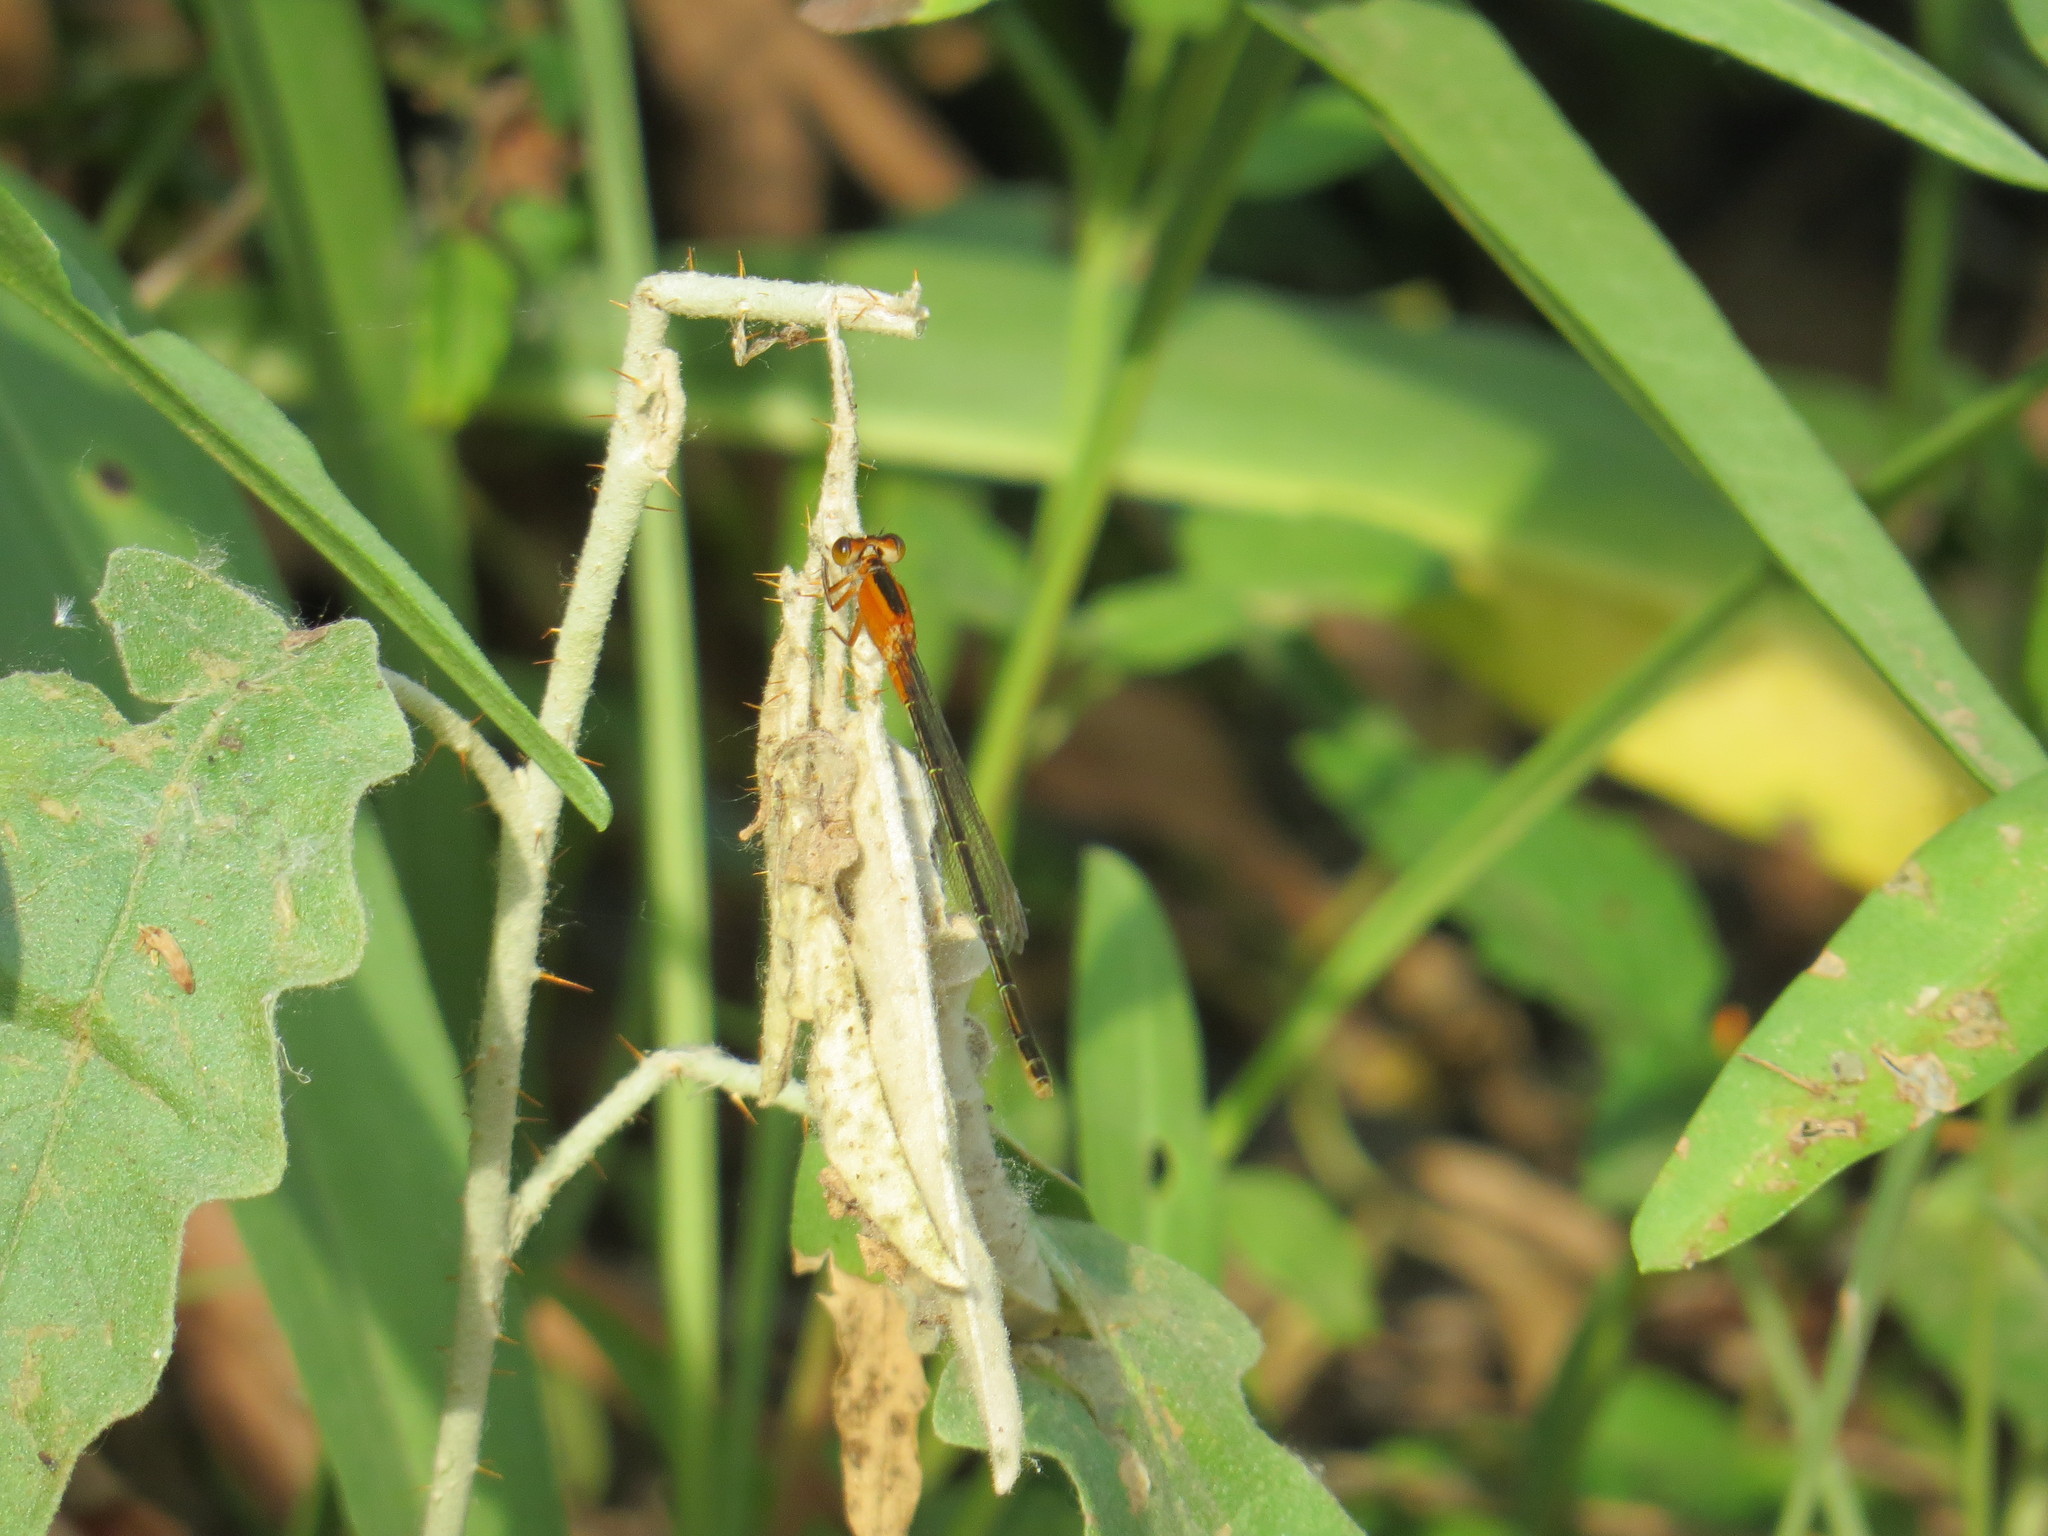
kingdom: Animalia
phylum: Arthropoda
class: Insecta
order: Odonata
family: Coenagrionidae
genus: Ischnura
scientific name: Ischnura ramburii
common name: Rambur's forktail
